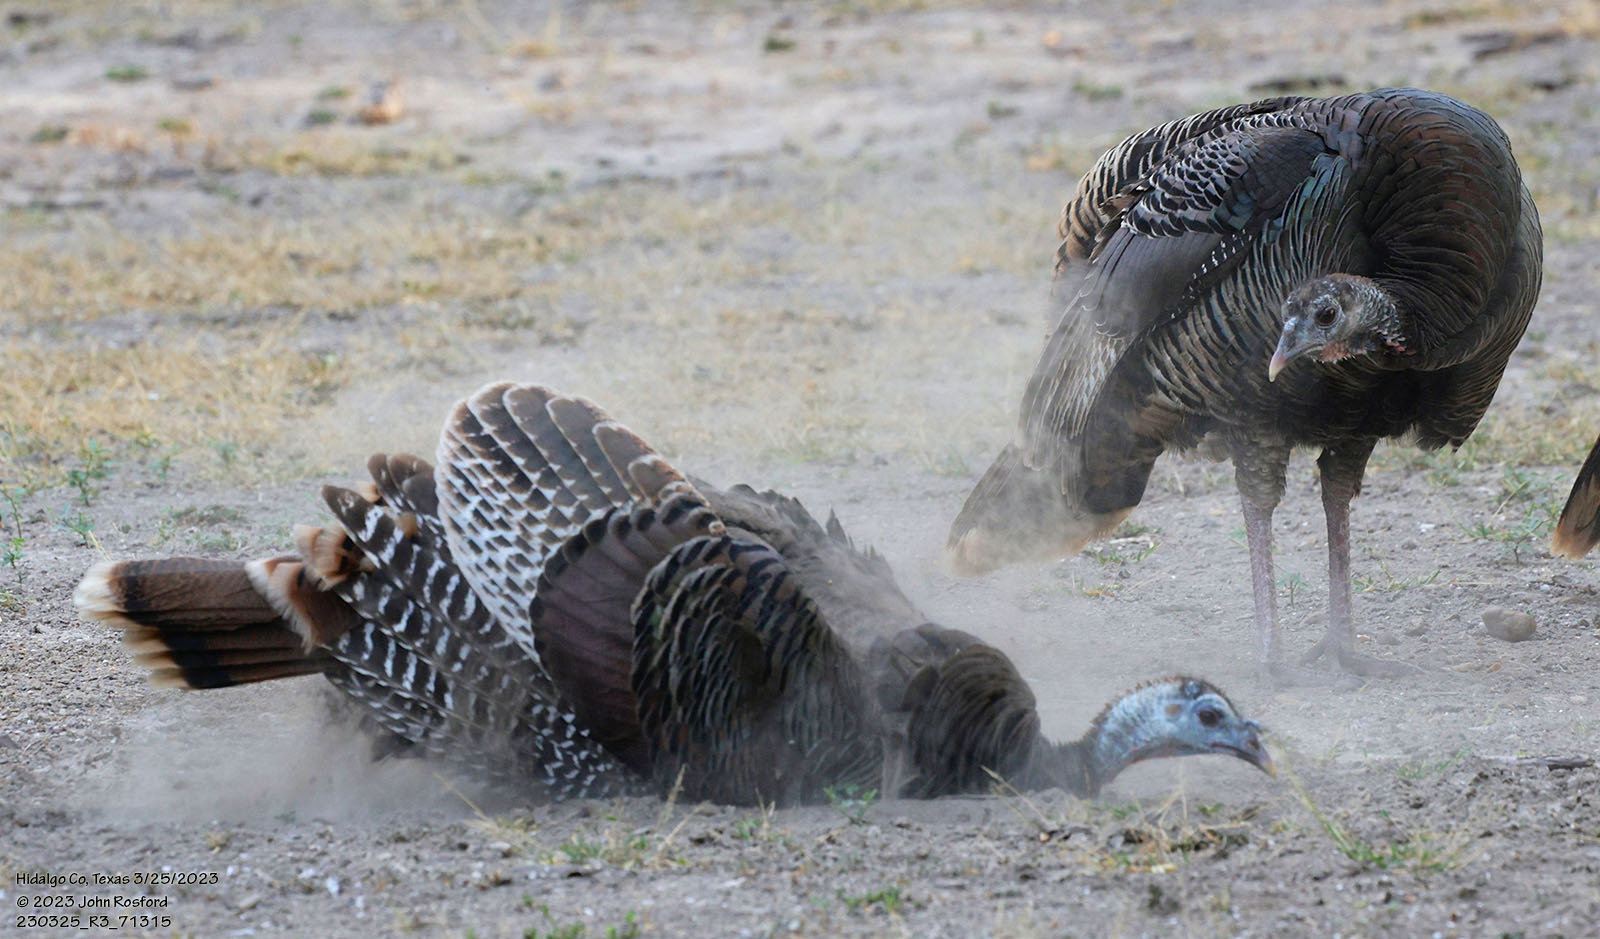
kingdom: Animalia
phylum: Chordata
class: Aves
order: Galliformes
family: Phasianidae
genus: Meleagris
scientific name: Meleagris gallopavo
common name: Wild turkey
